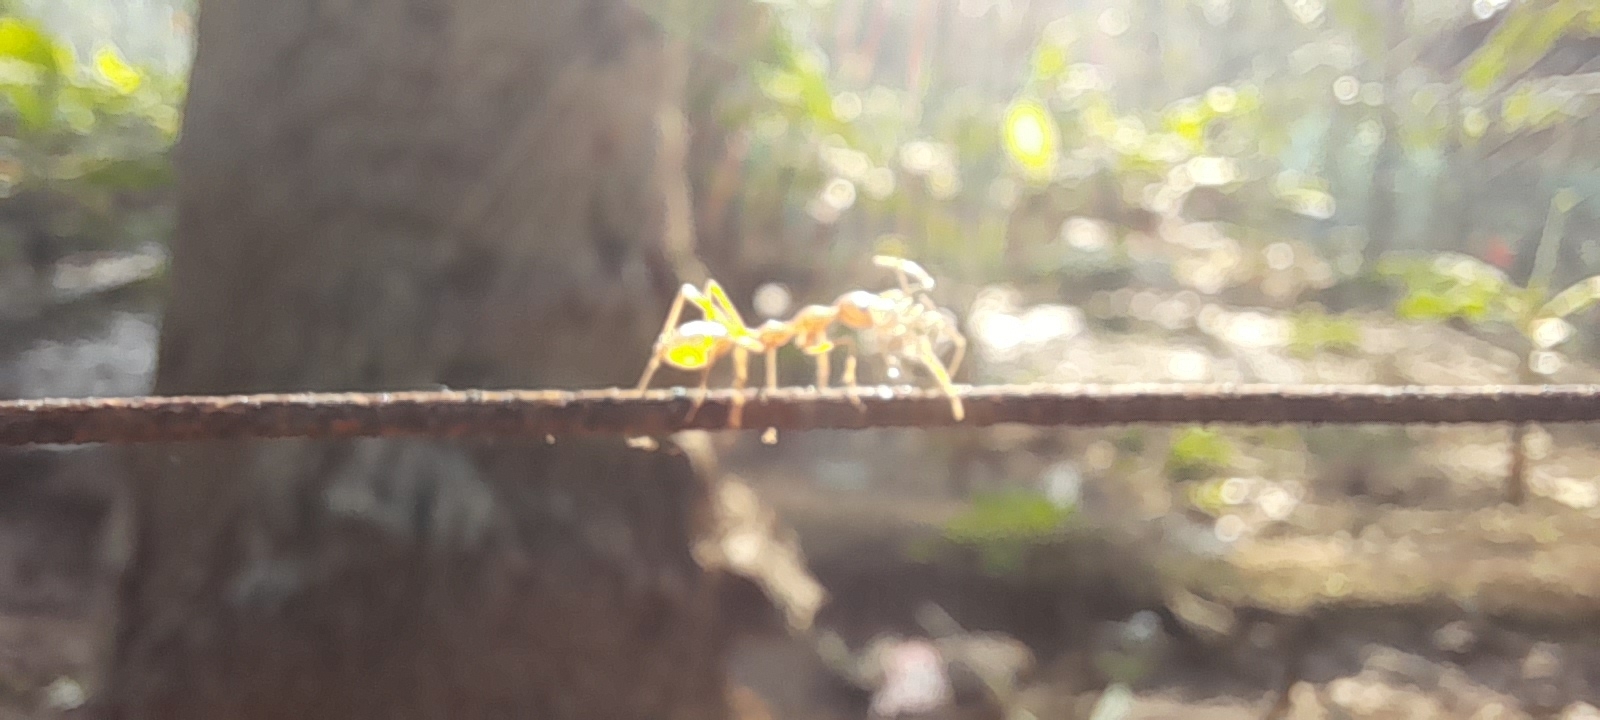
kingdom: Animalia
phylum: Arthropoda
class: Insecta
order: Hymenoptera
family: Formicidae
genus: Oecophylla
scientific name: Oecophylla smaragdina
